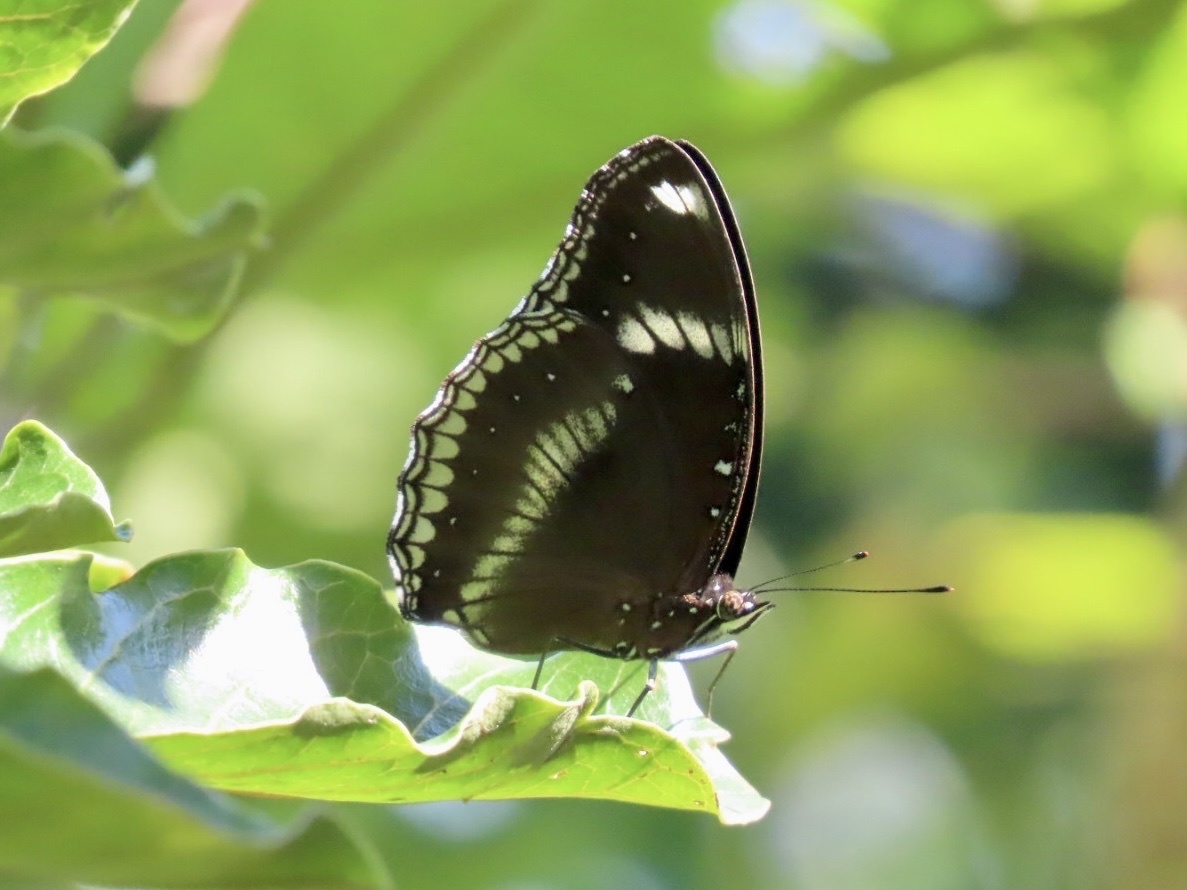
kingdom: Animalia
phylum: Arthropoda
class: Insecta
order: Lepidoptera
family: Nymphalidae
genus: Hypolimnas
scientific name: Hypolimnas bolina
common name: Great eggfly
